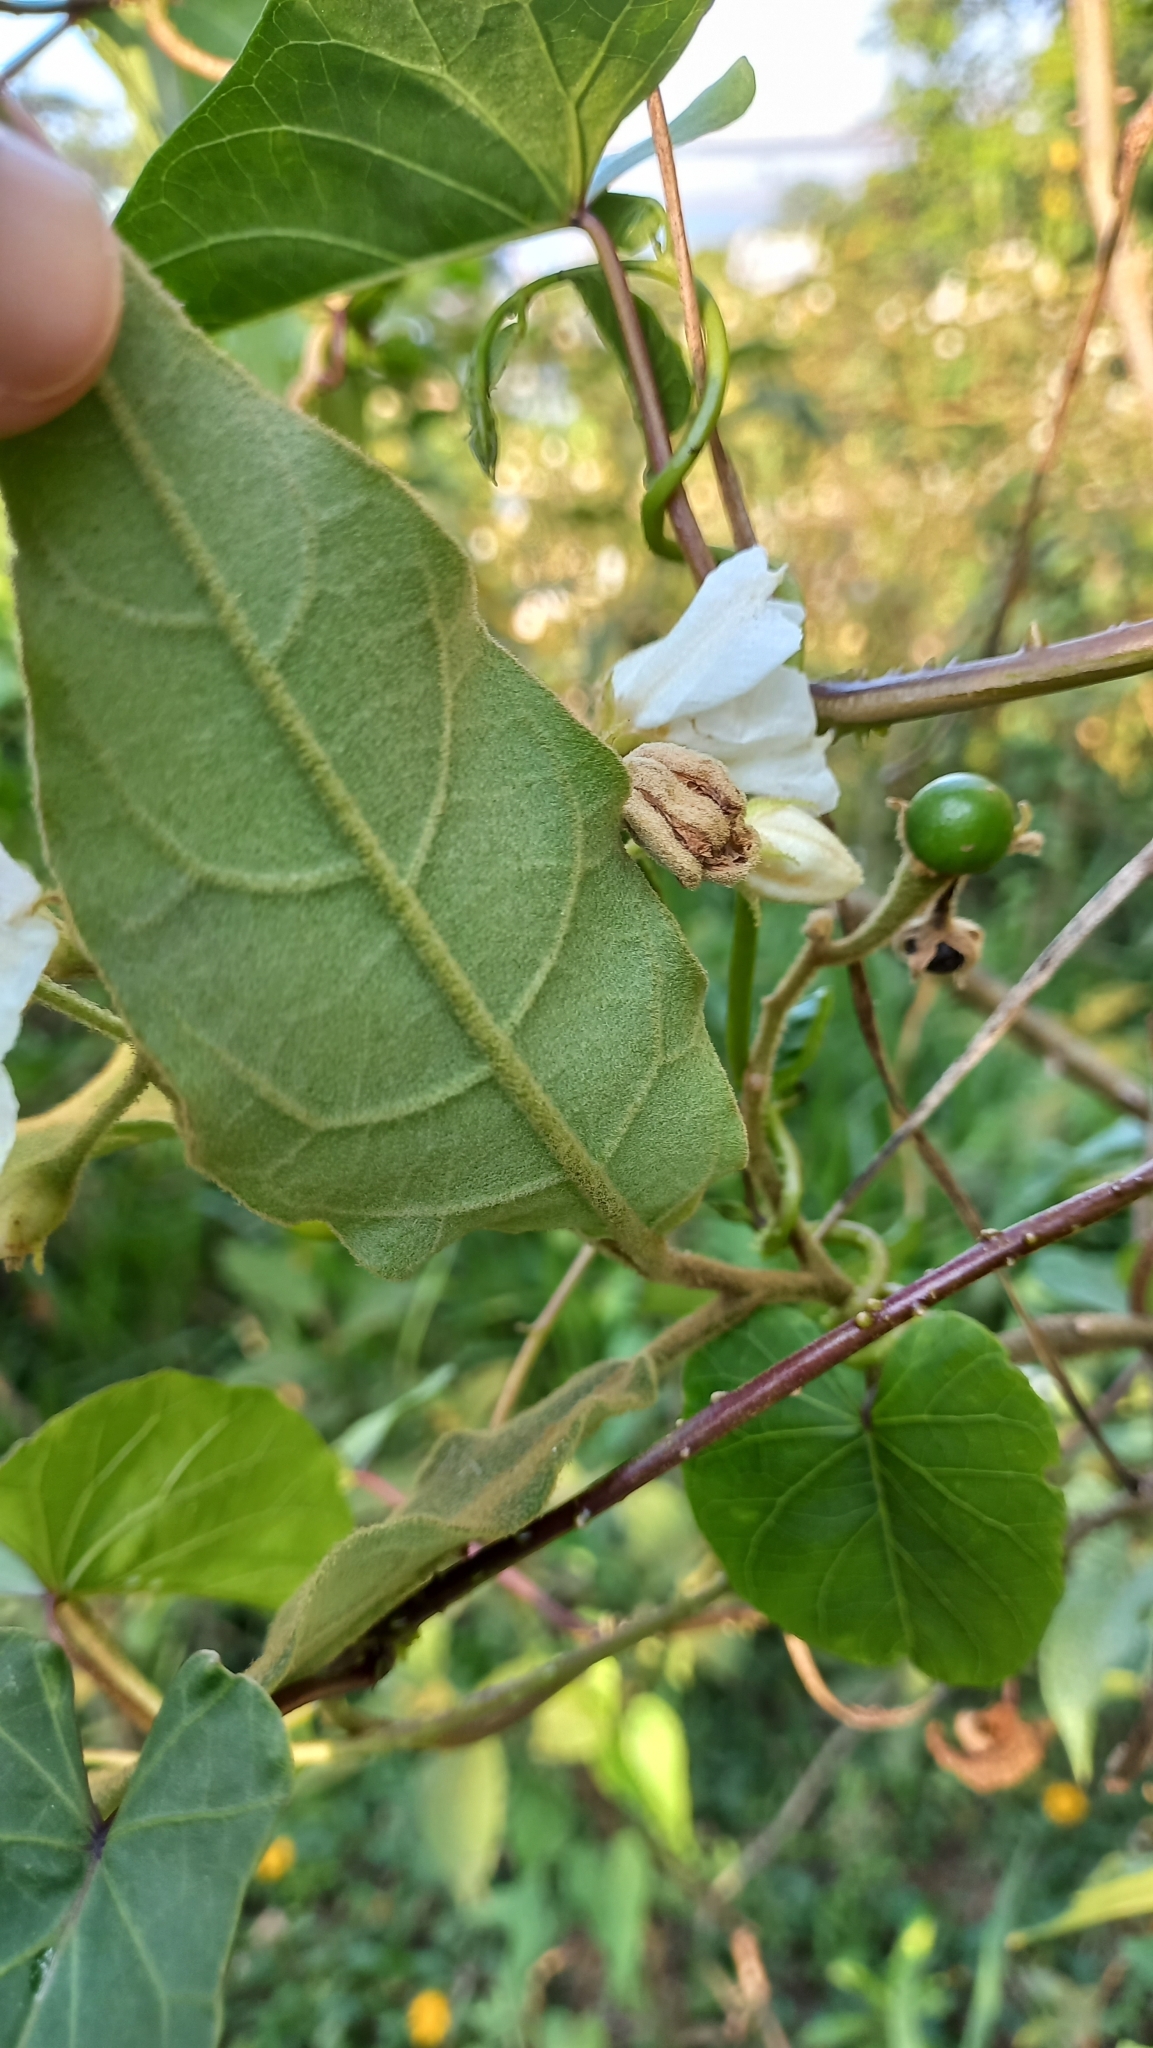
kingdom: Plantae
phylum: Tracheophyta
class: Magnoliopsida
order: Solanales
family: Solanaceae
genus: Solanum
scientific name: Solanum variabile
